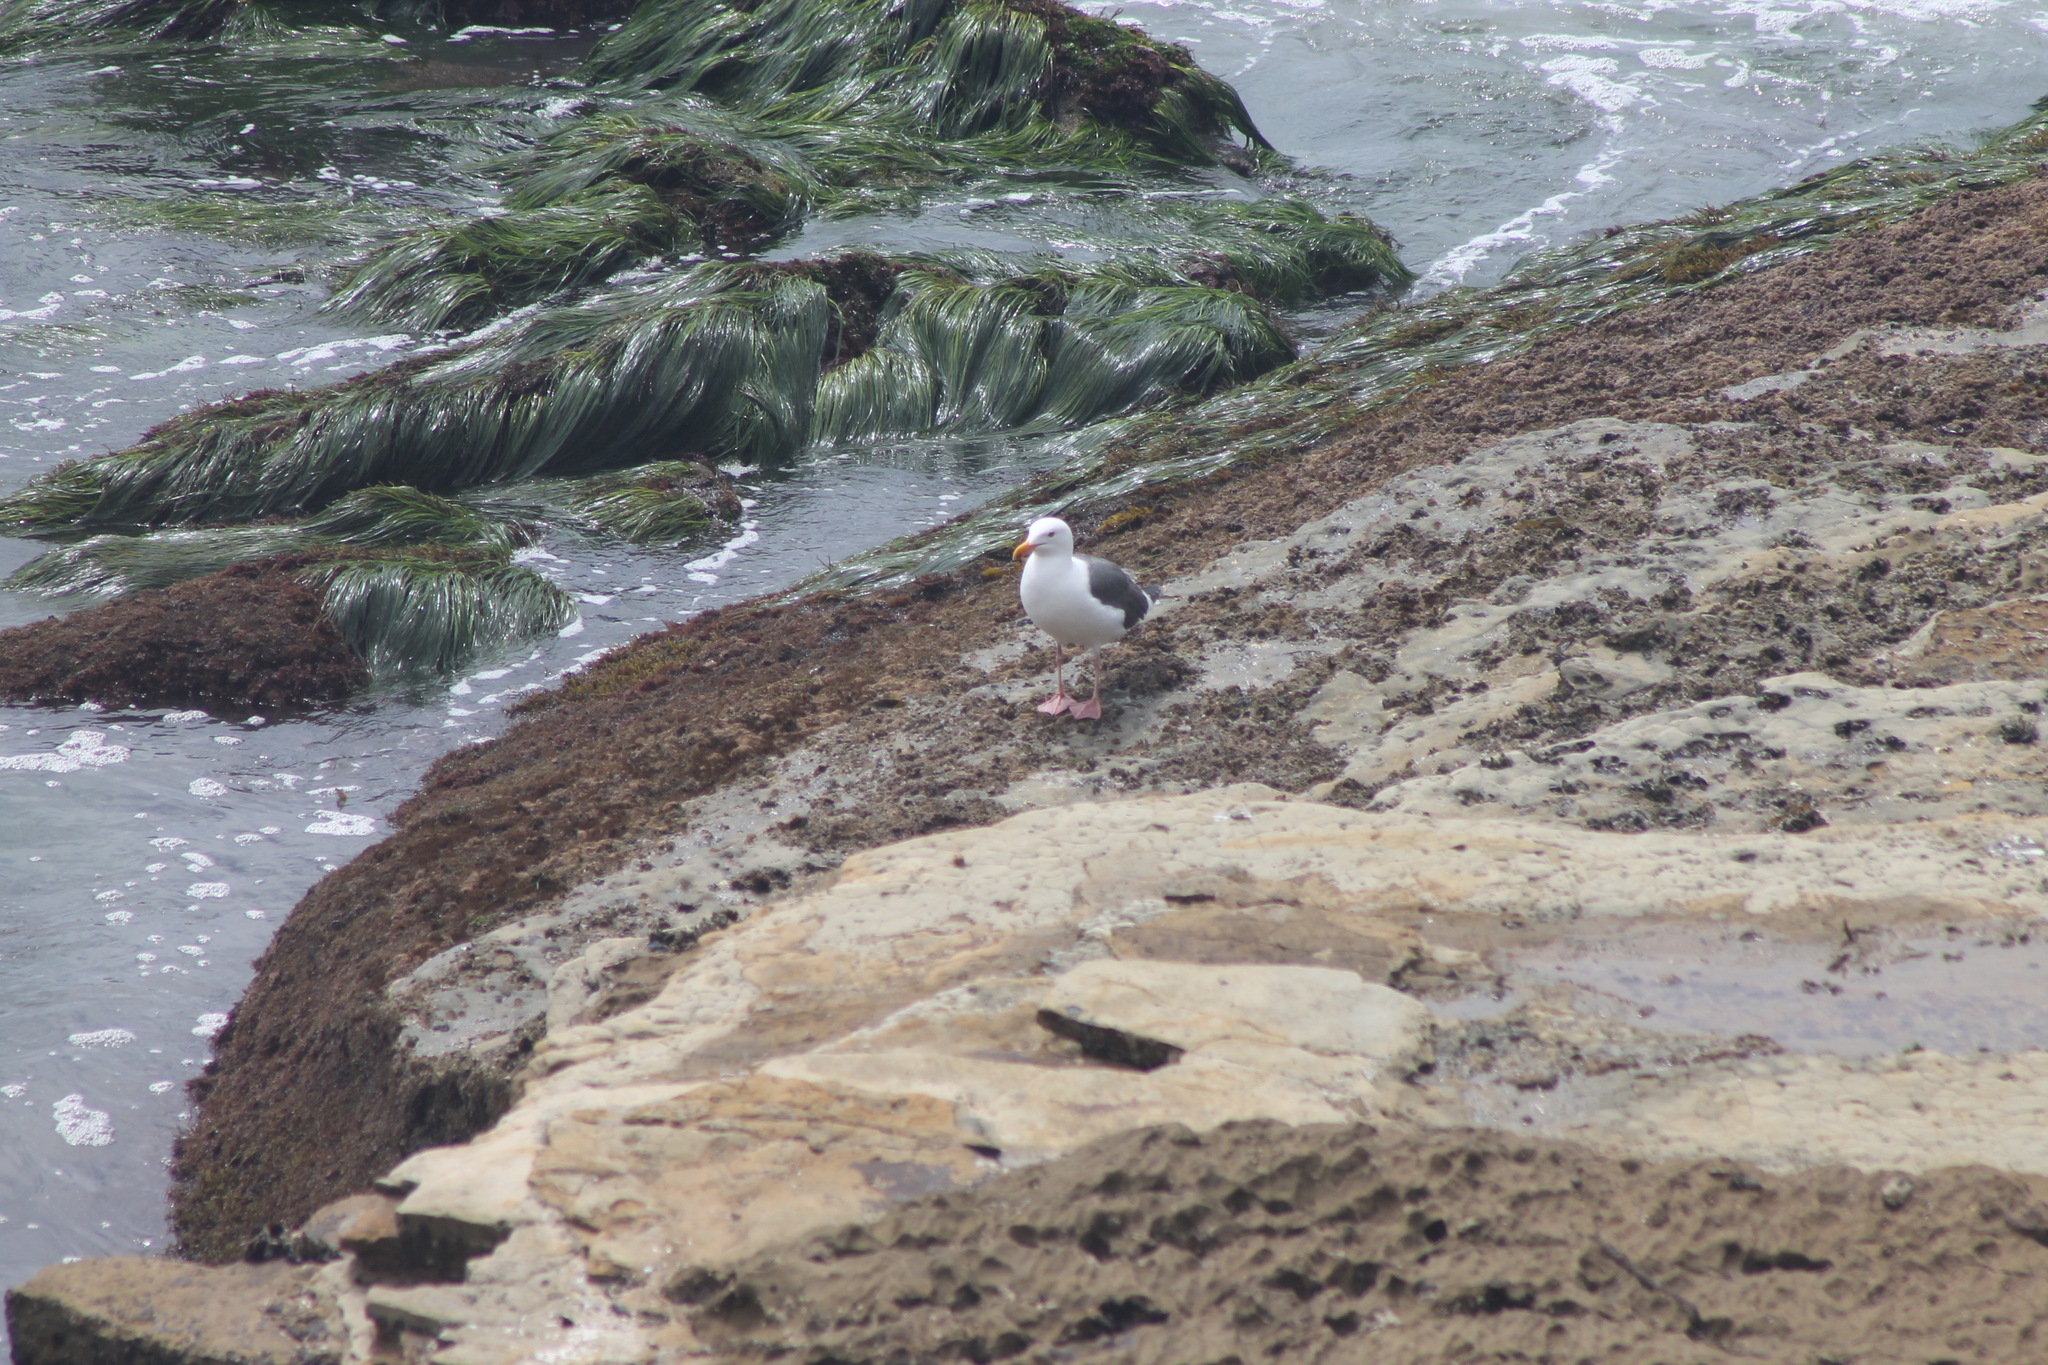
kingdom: Animalia
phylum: Chordata
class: Aves
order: Charadriiformes
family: Laridae
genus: Larus
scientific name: Larus occidentalis
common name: Western gull
